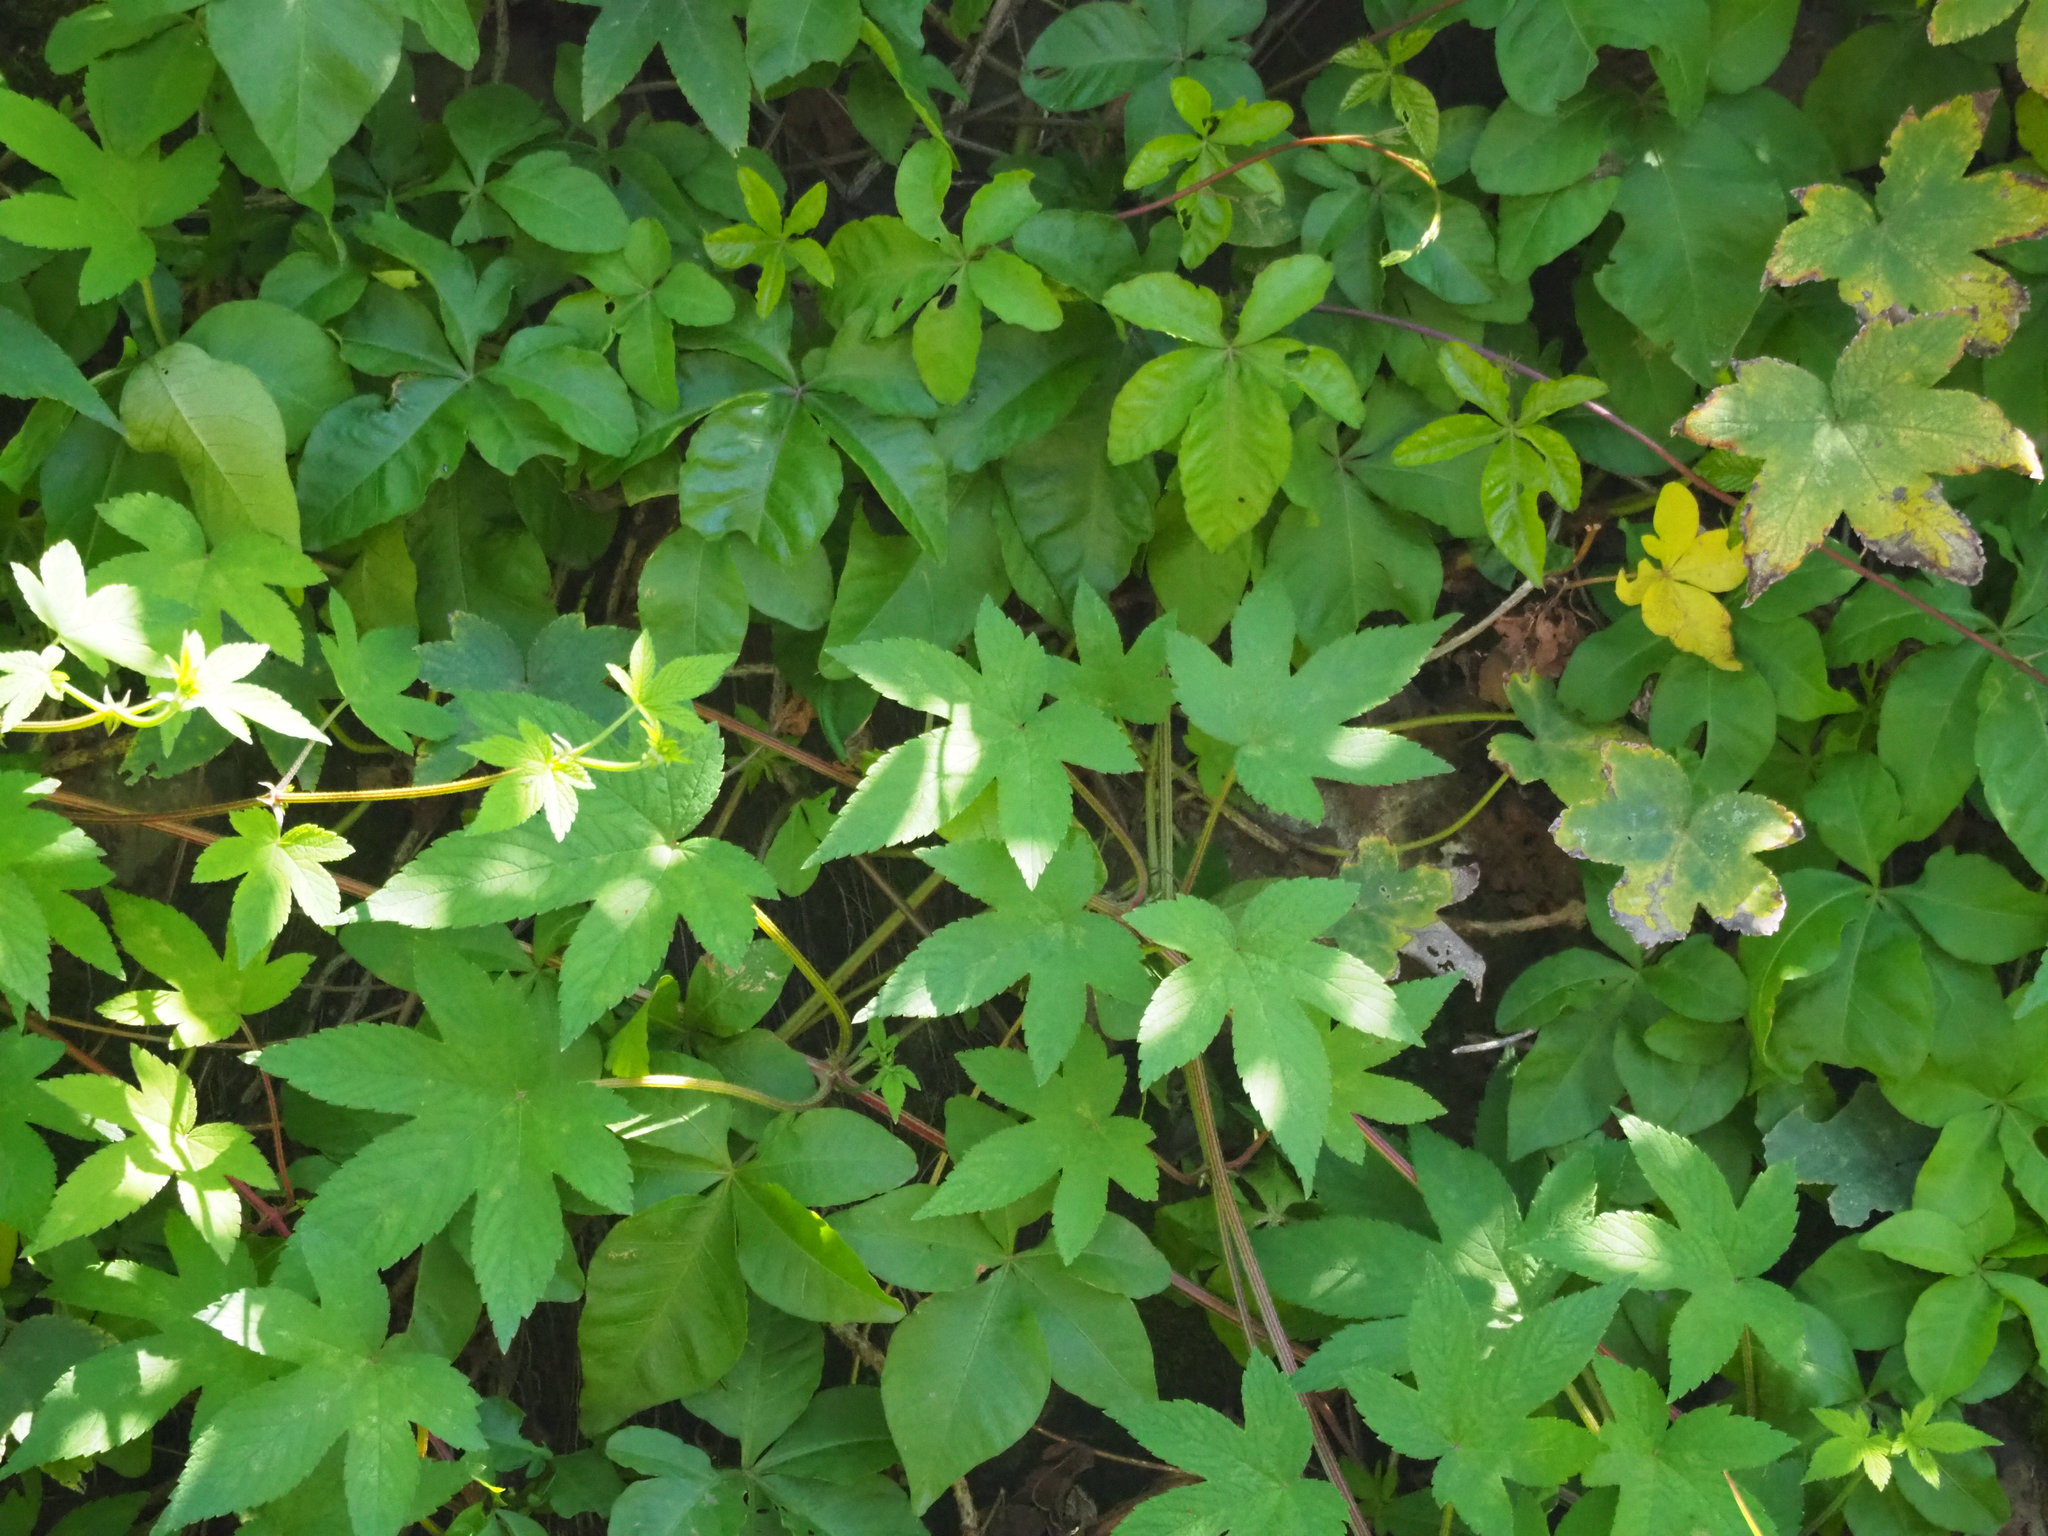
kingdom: Plantae
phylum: Tracheophyta
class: Magnoliopsida
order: Rosales
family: Cannabaceae
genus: Humulus
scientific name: Humulus scandens
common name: Japanese hop
